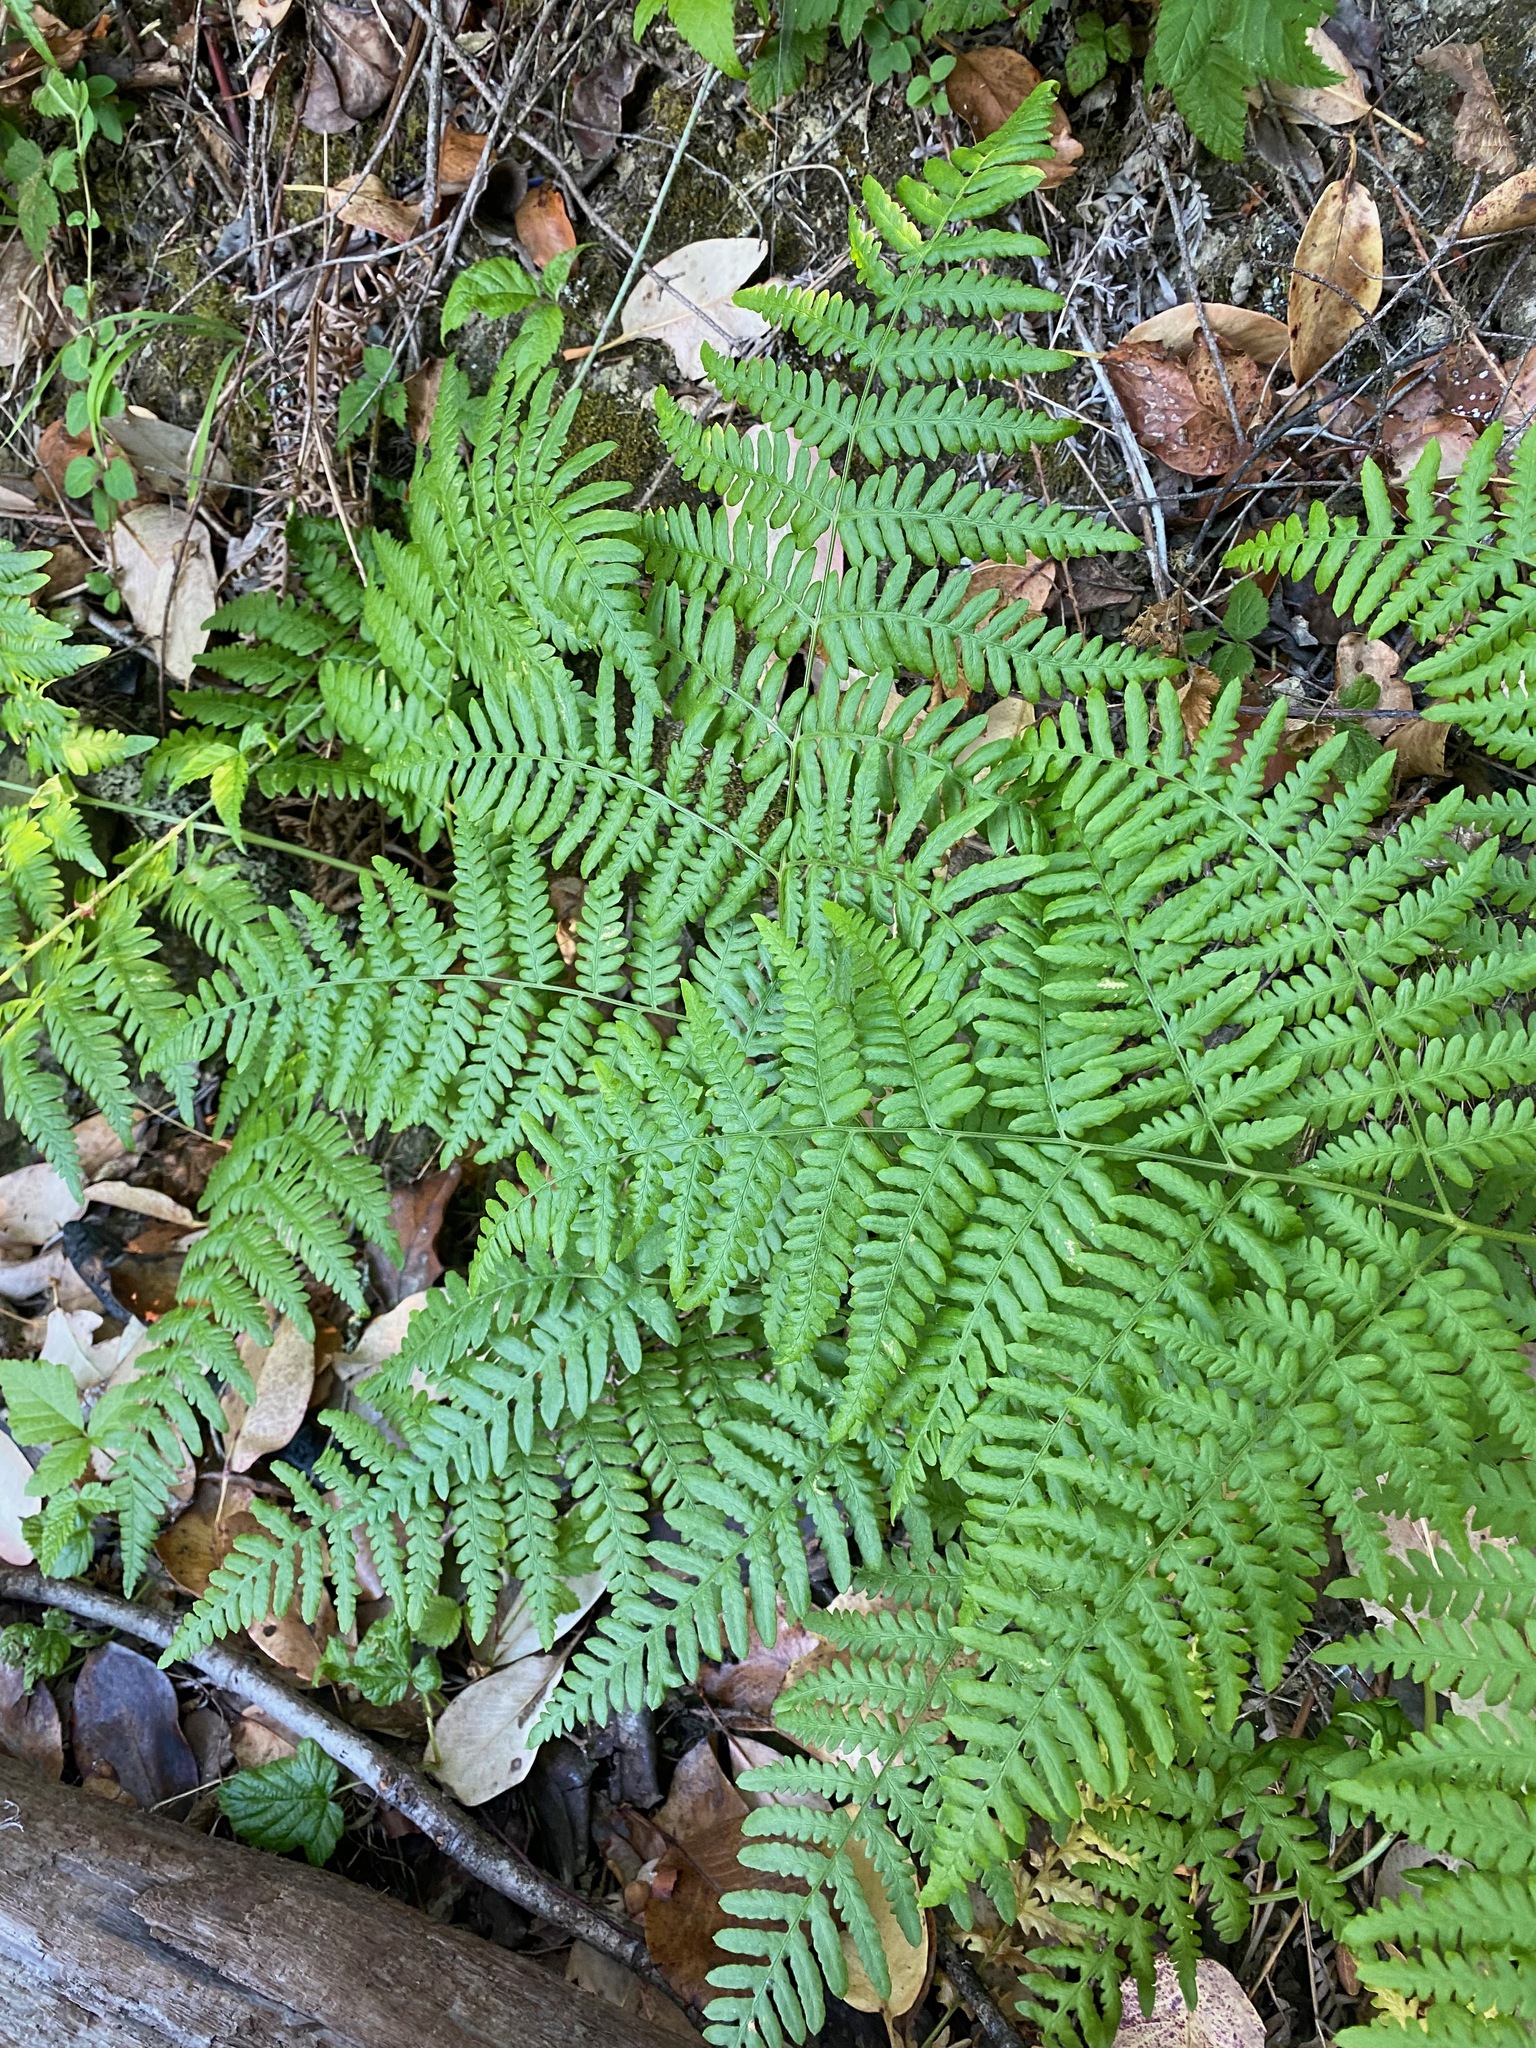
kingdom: Plantae
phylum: Tracheophyta
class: Polypodiopsida
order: Polypodiales
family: Dennstaedtiaceae
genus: Pteridium
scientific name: Pteridium aquilinum
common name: Bracken
